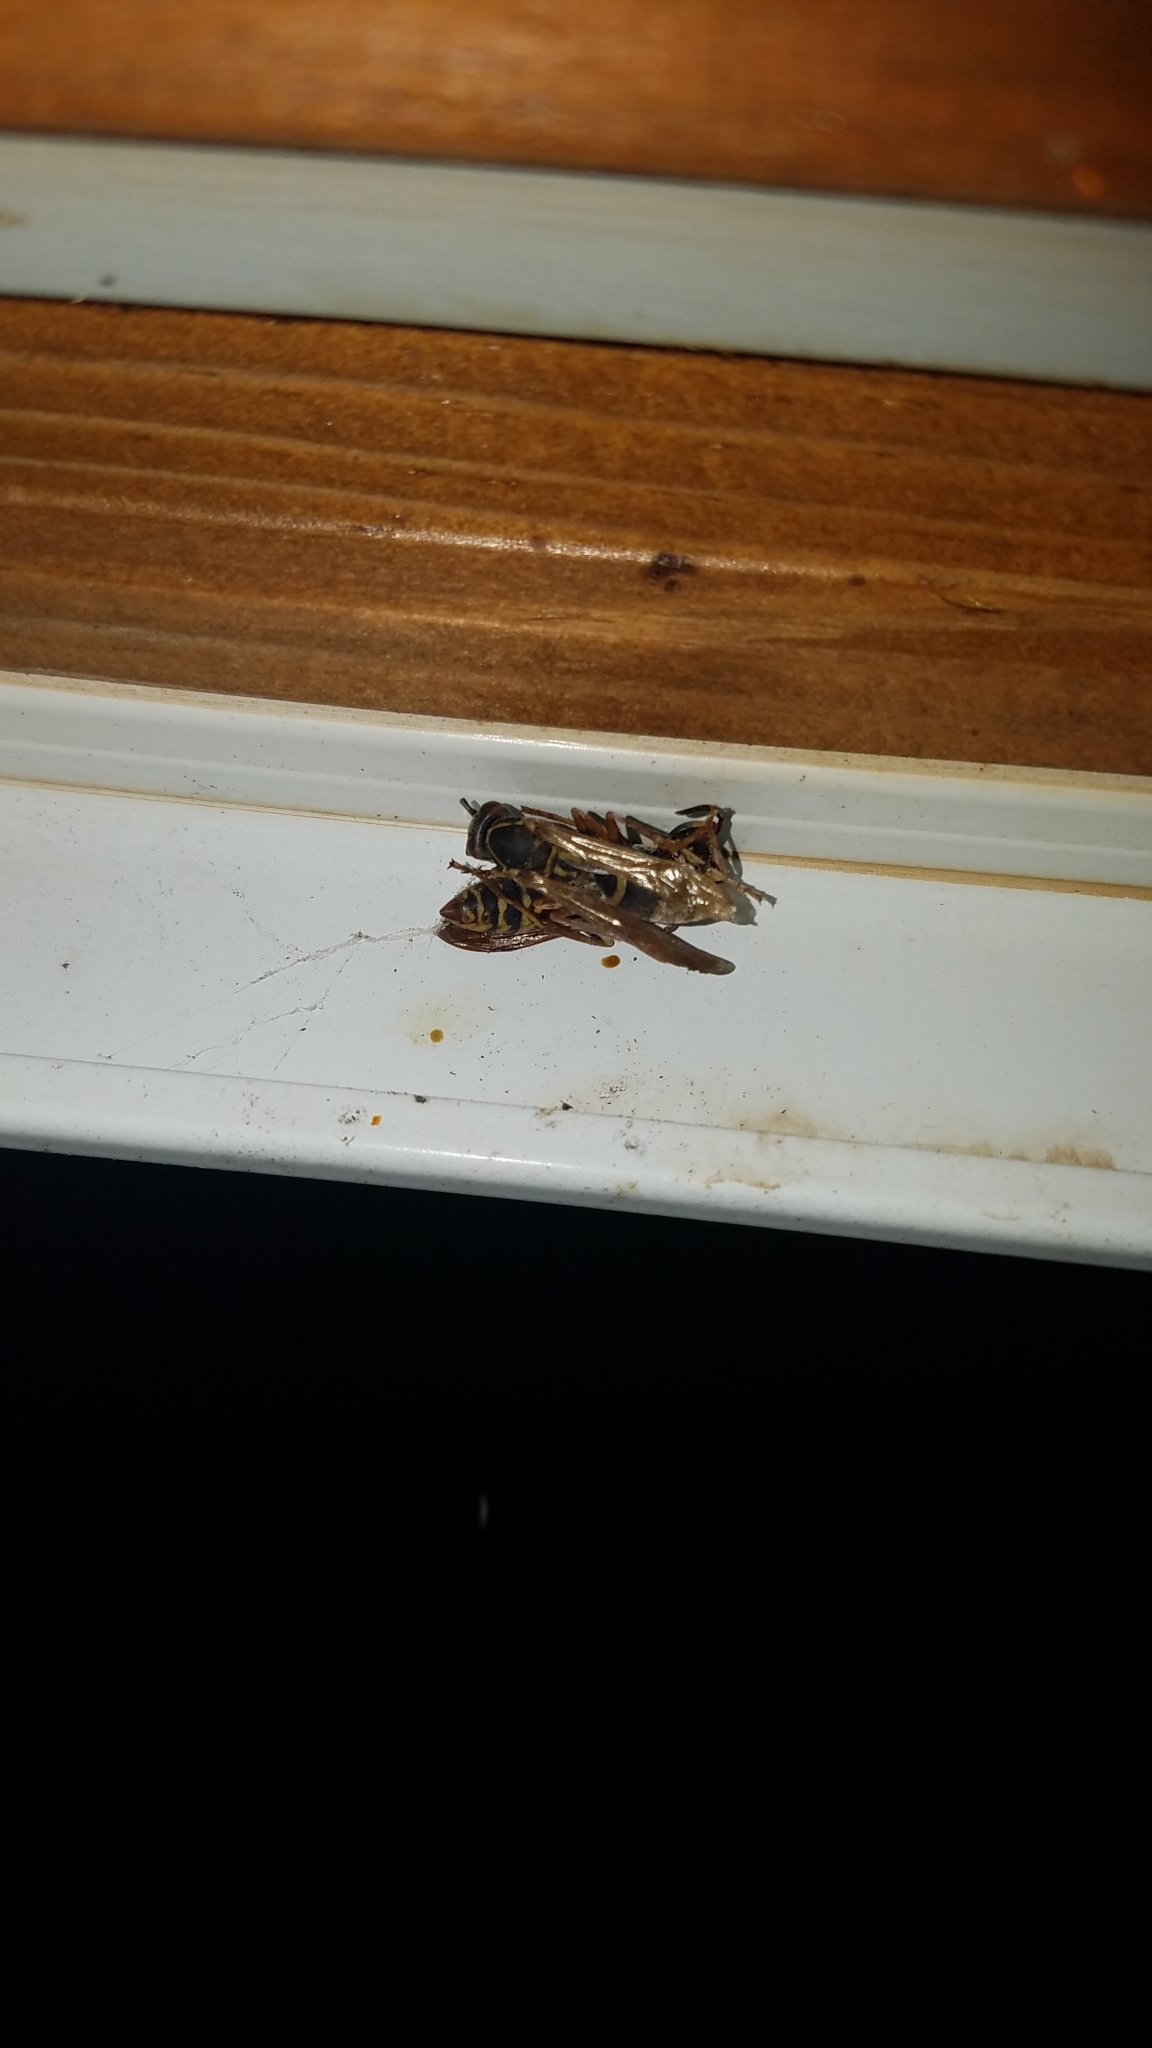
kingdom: Animalia
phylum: Arthropoda
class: Insecta
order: Hymenoptera
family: Eumenidae
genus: Polistes
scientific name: Polistes fuscatus
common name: Dark paper wasp
